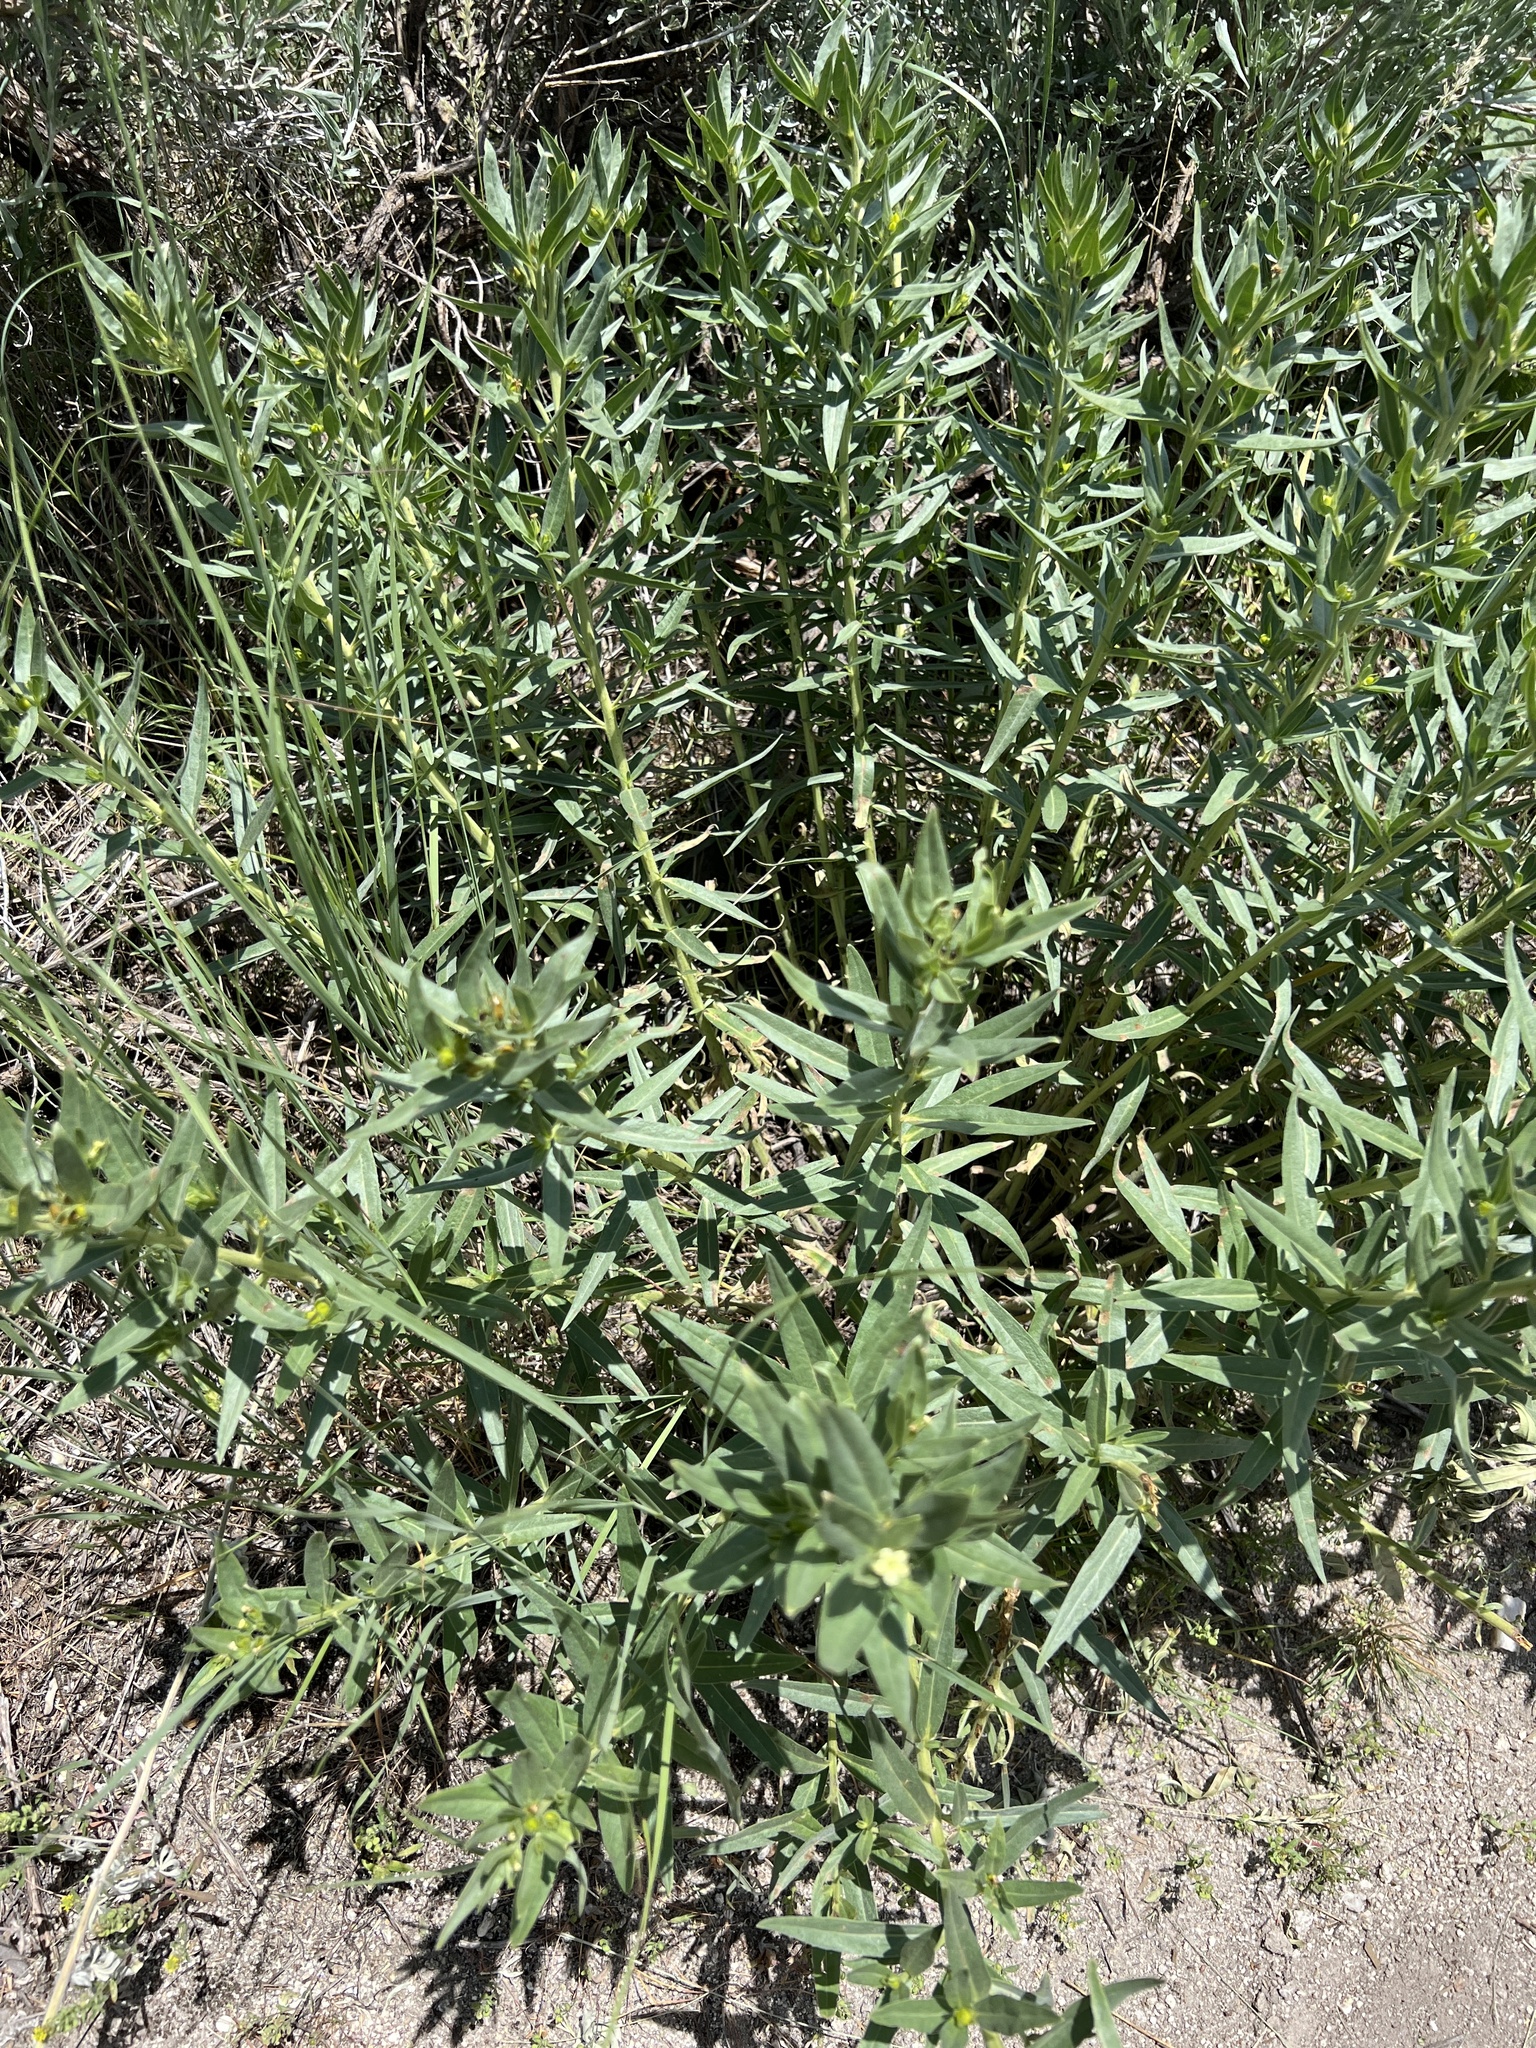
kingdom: Plantae
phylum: Tracheophyta
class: Magnoliopsida
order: Boraginales
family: Boraginaceae
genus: Lithospermum
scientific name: Lithospermum ruderale
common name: Western gromwell
